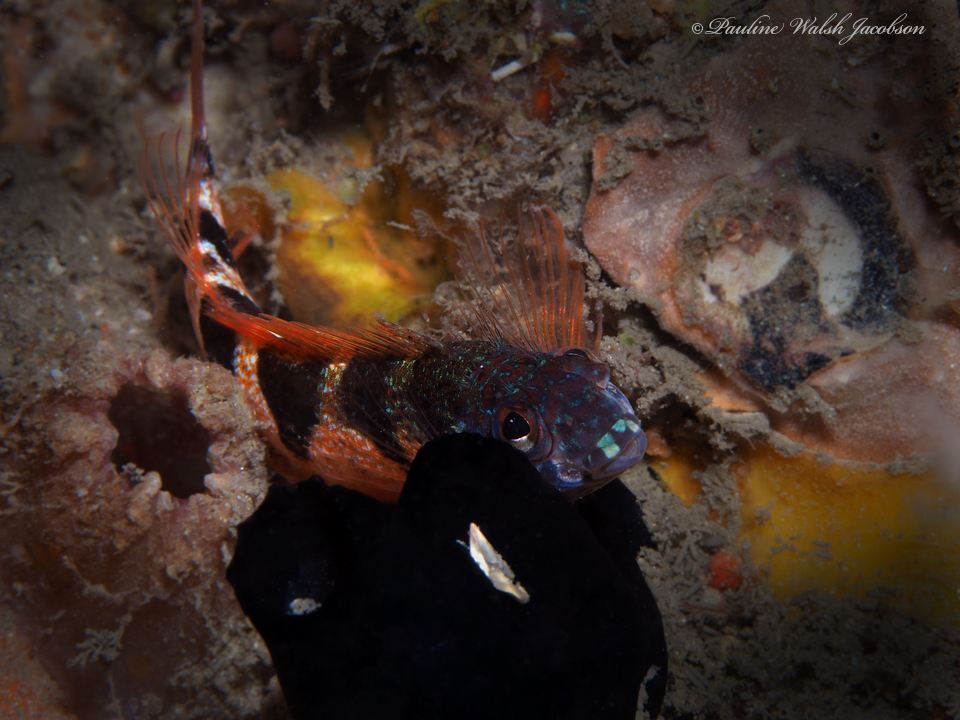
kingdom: Animalia
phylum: Chordata
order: Perciformes
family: Labrisomidae
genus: Malacoctenus
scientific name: Malacoctenus triangulatus
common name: Saddled blenny
